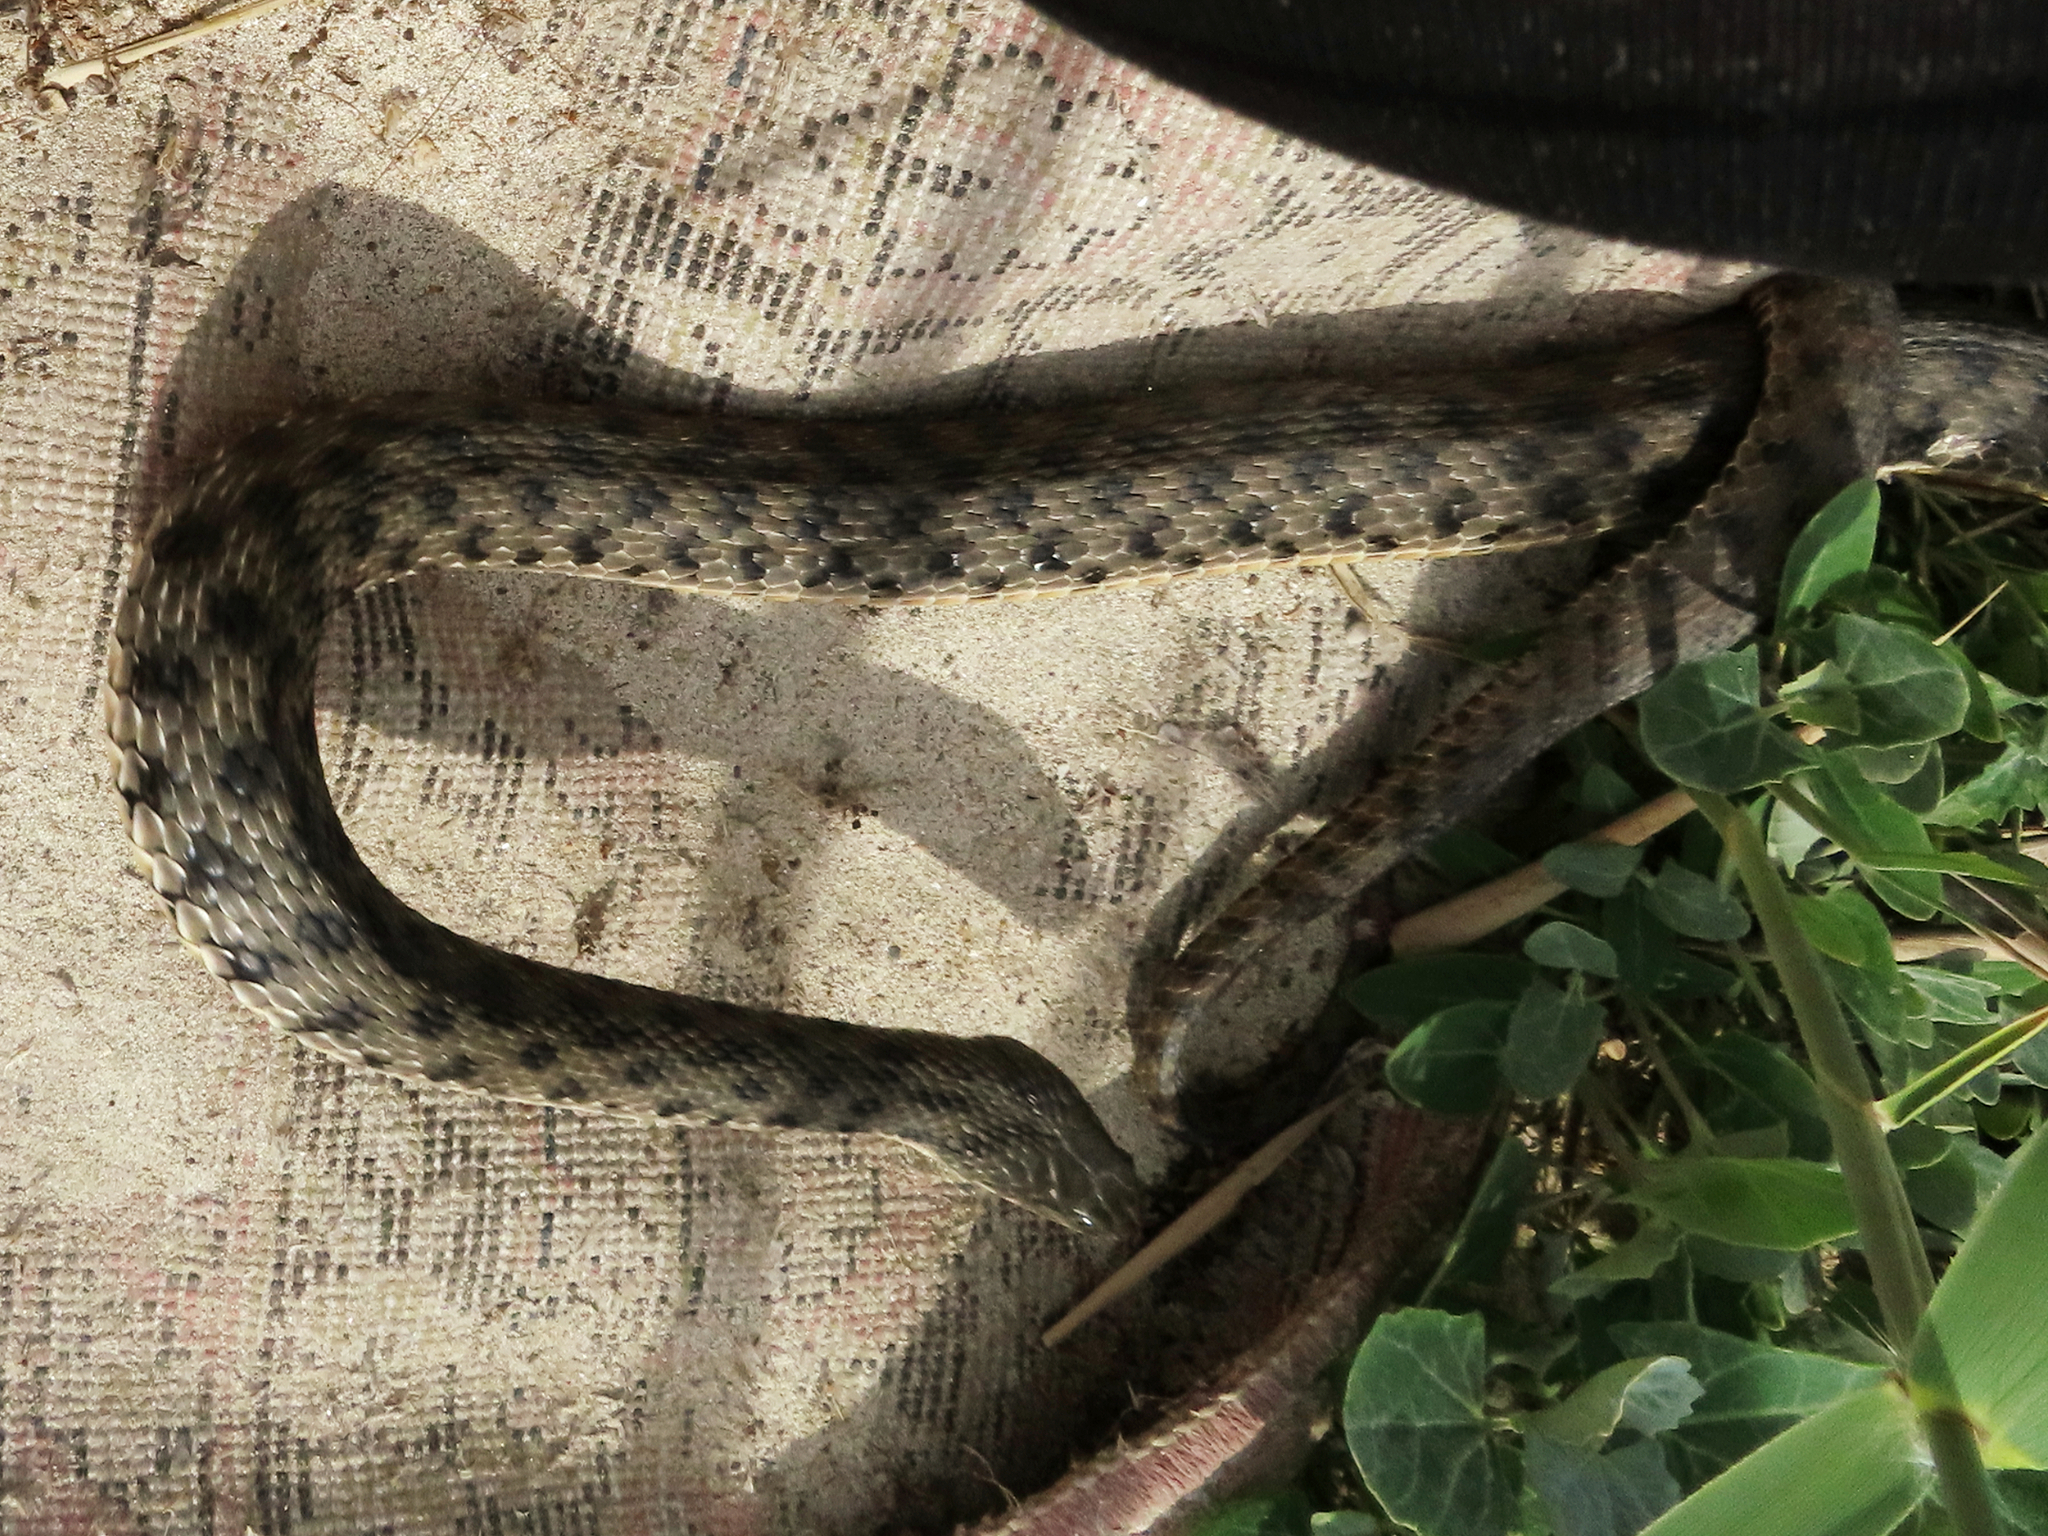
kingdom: Animalia
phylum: Chordata
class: Squamata
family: Colubridae
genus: Natrix
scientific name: Natrix tessellata
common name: Dice snake
